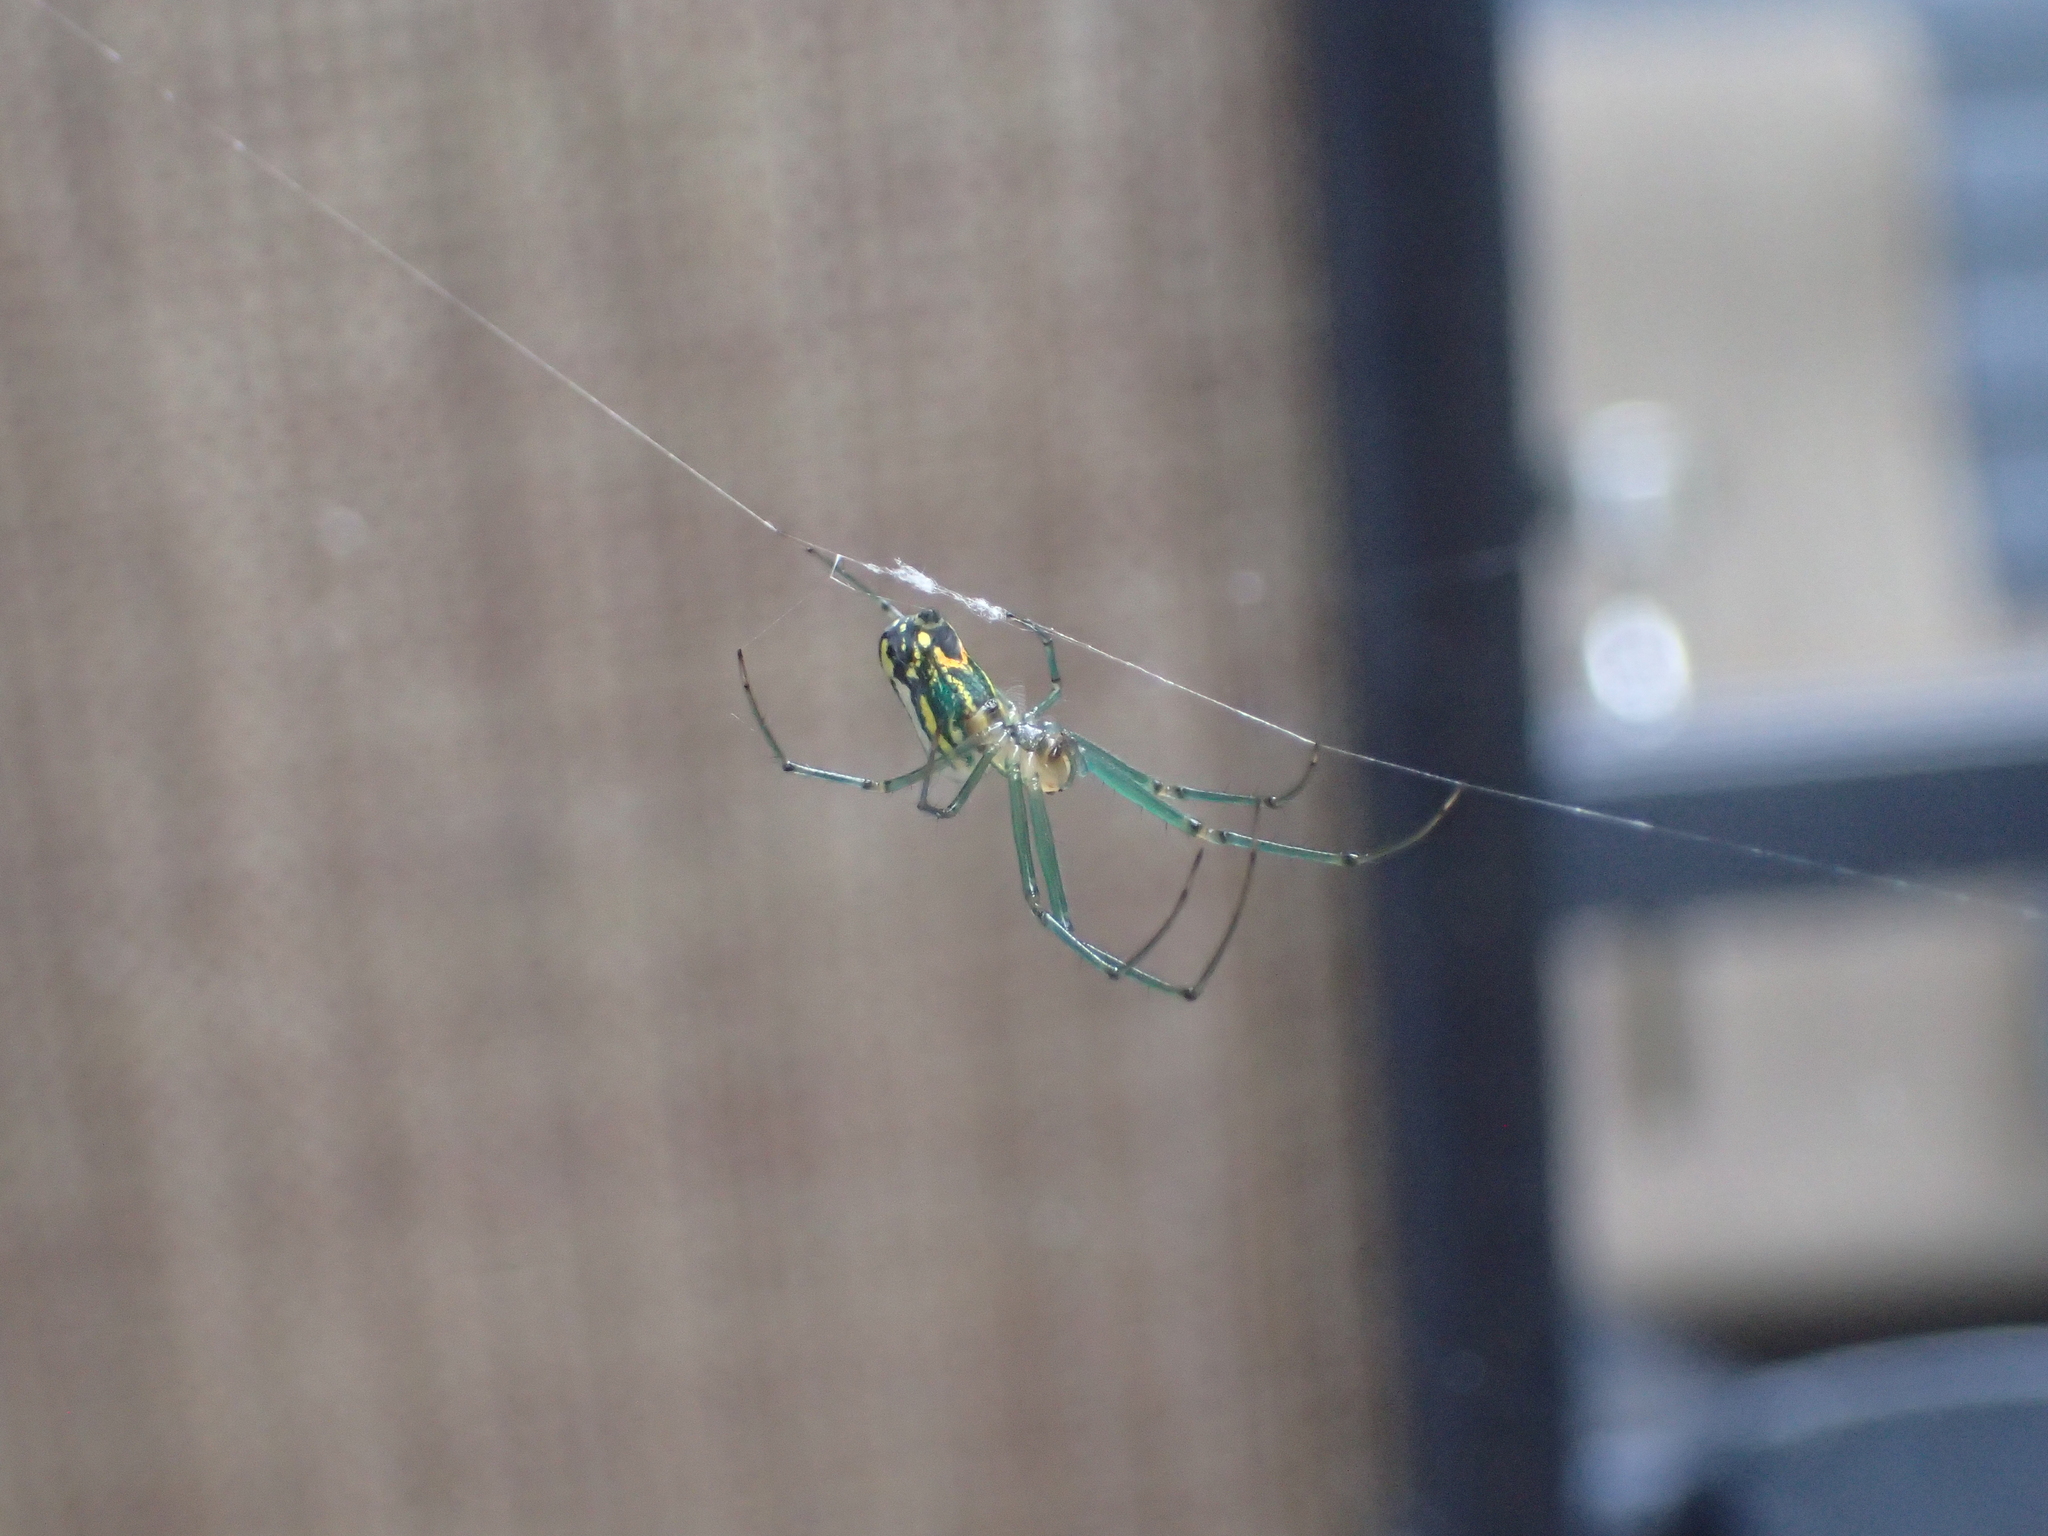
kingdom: Animalia
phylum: Arthropoda
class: Arachnida
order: Araneae
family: Tetragnathidae
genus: Leucauge
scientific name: Leucauge venusta
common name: Longjawed orb weavers
